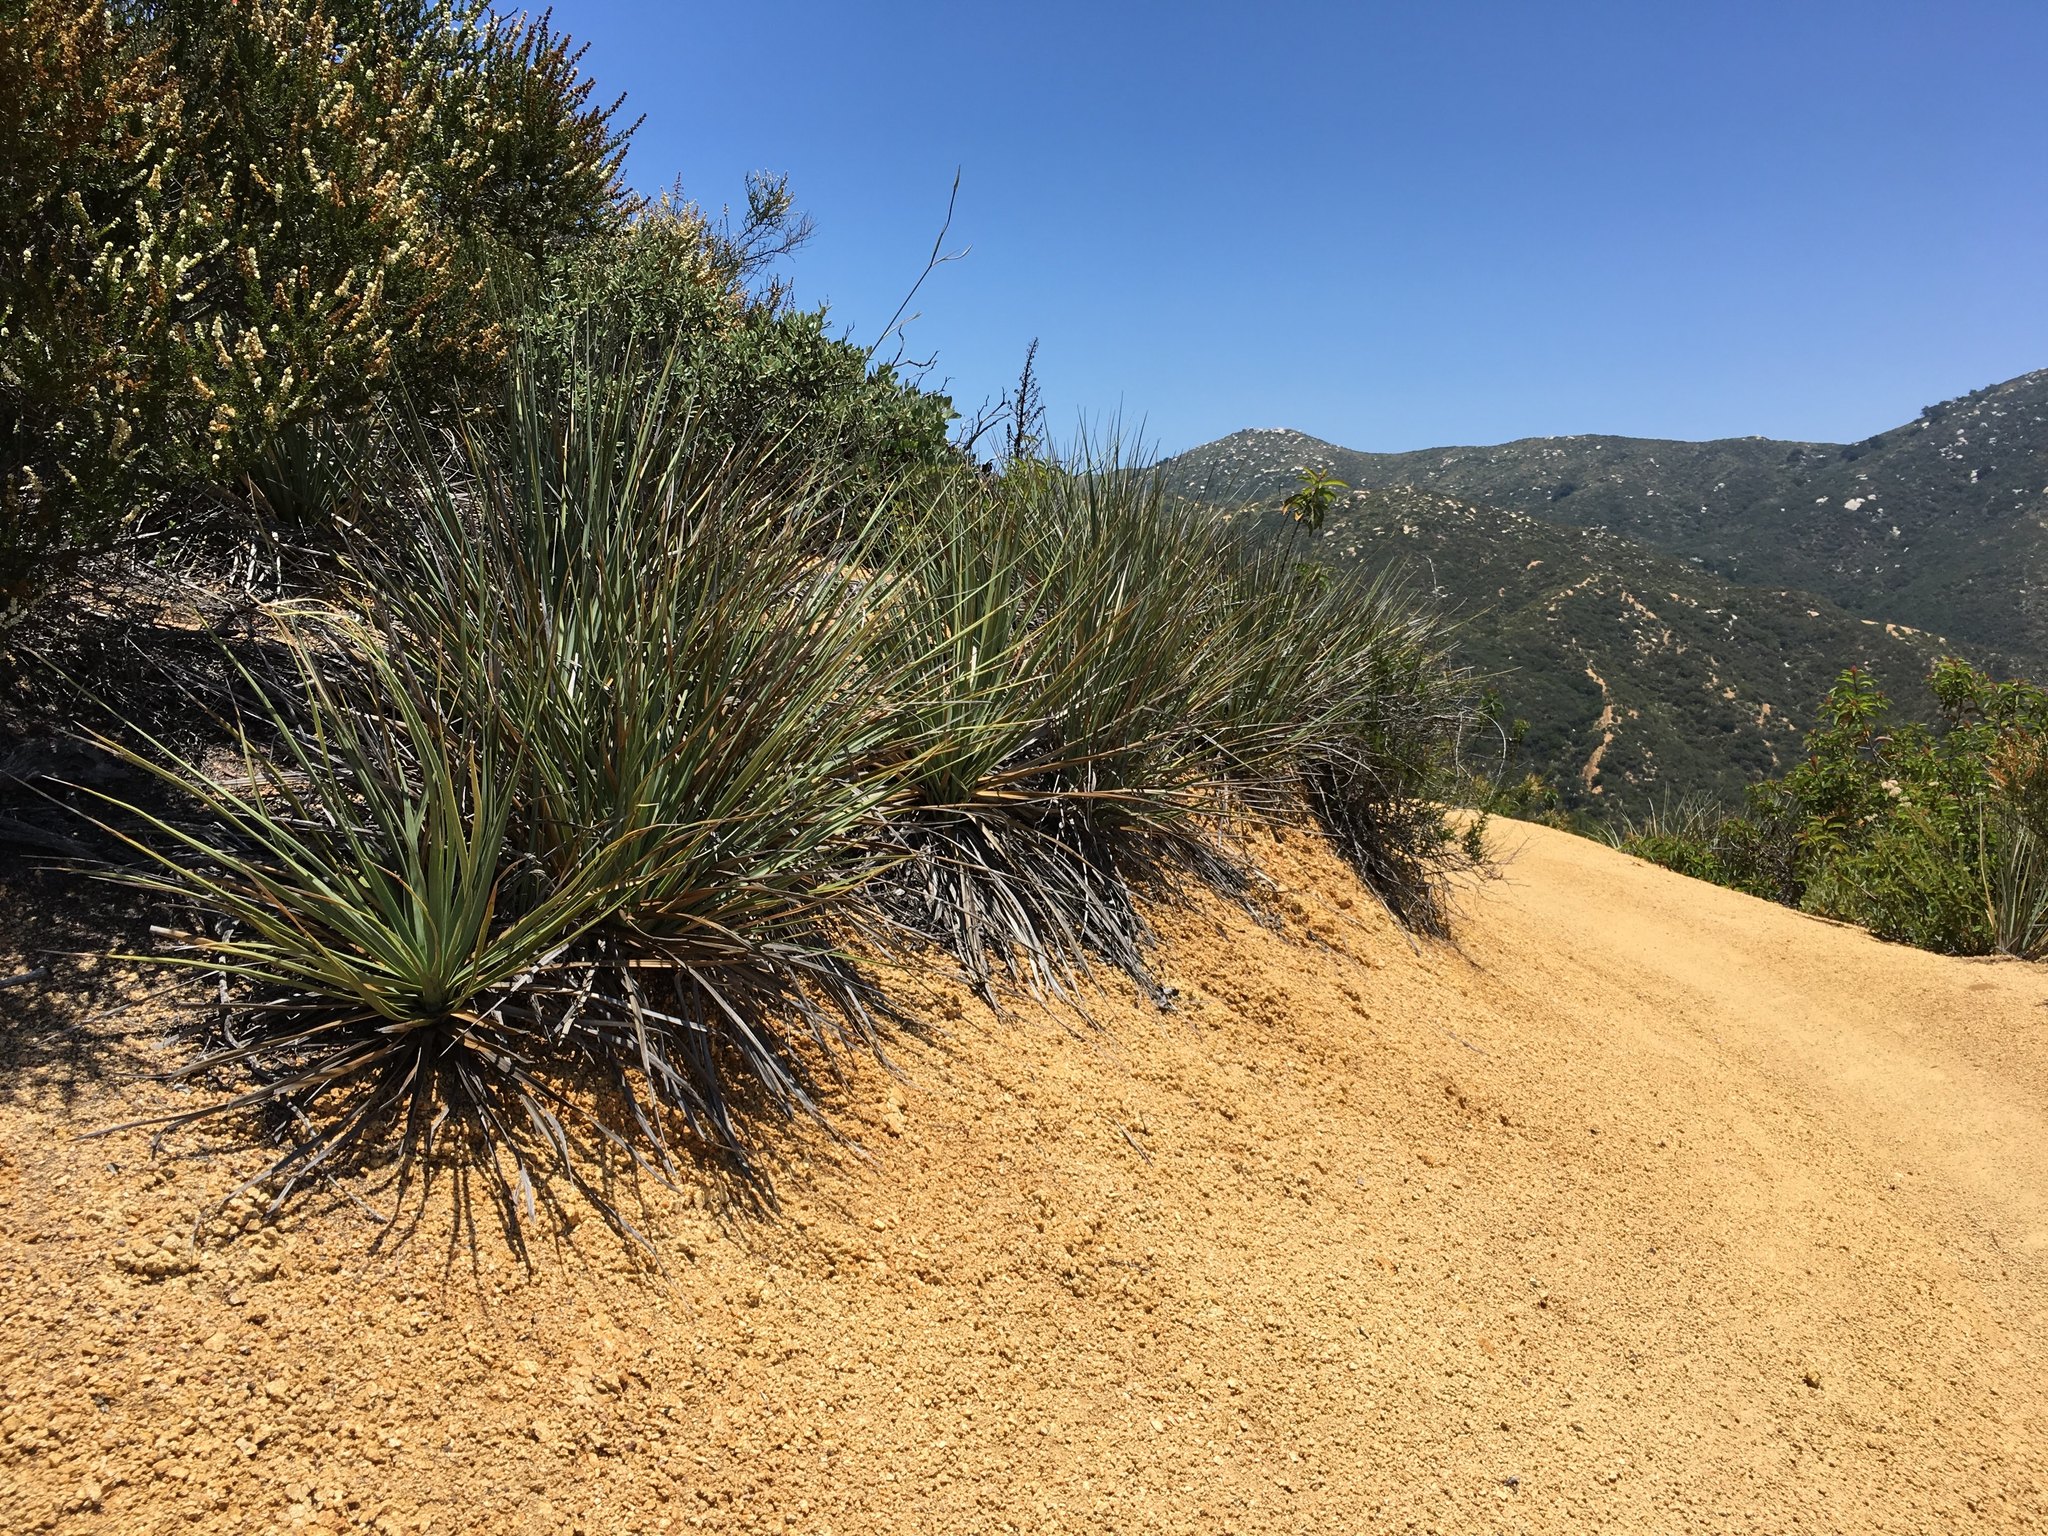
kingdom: Plantae
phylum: Tracheophyta
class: Liliopsida
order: Asparagales
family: Asparagaceae
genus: Nolina
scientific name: Nolina cismontana
